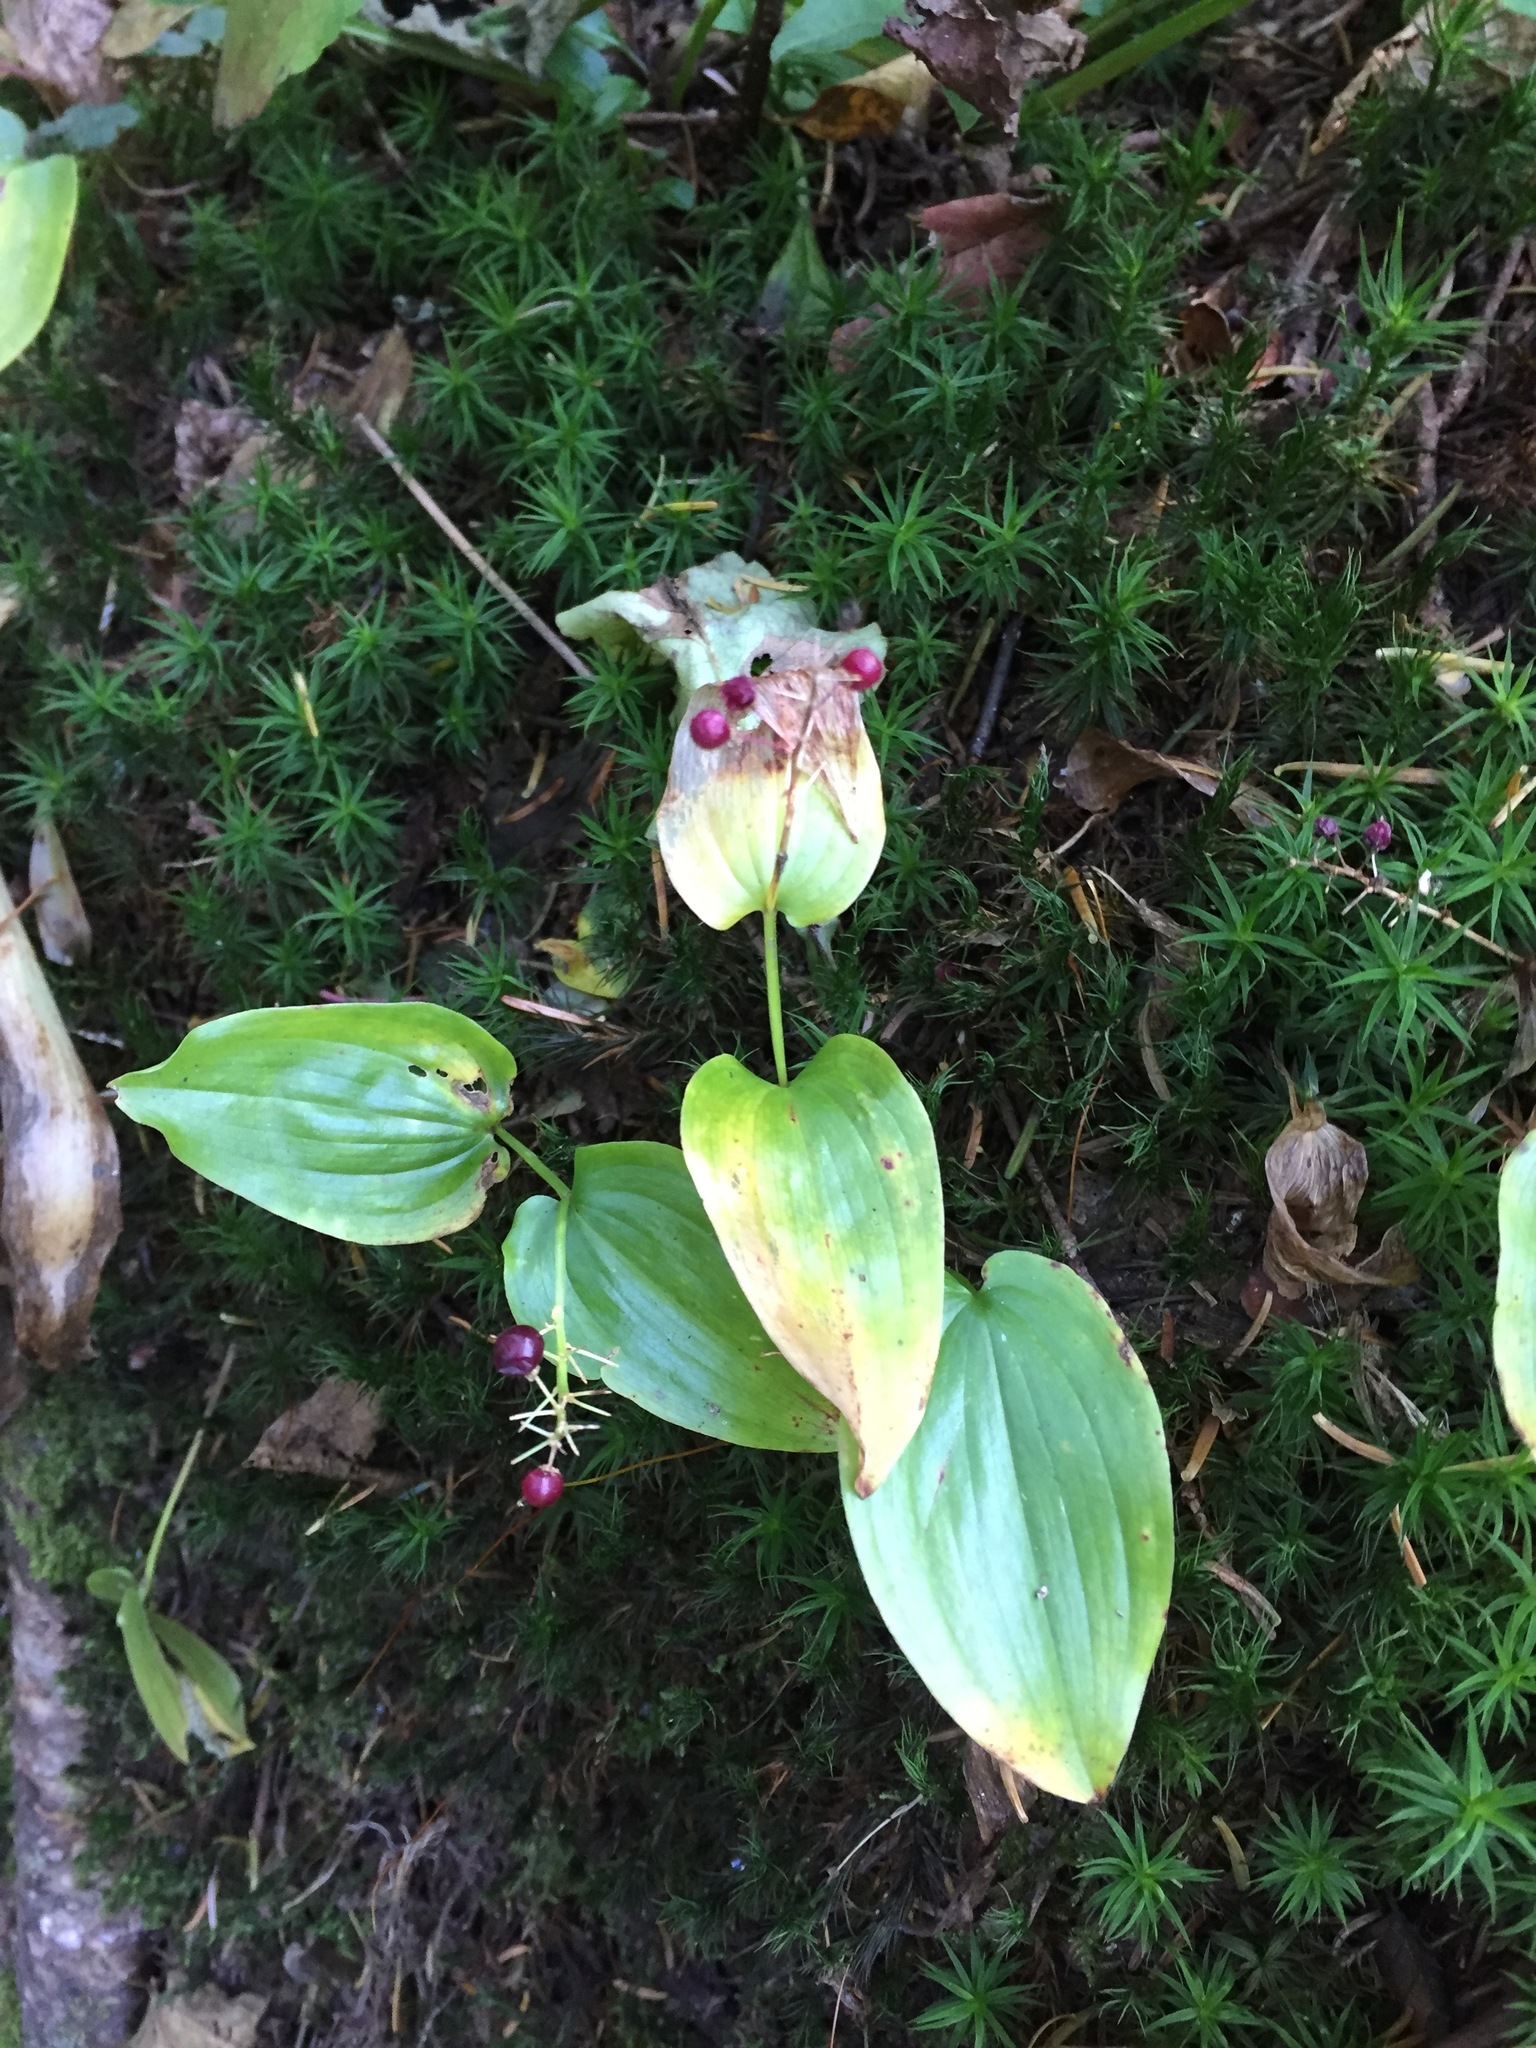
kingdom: Plantae
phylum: Tracheophyta
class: Liliopsida
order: Asparagales
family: Asparagaceae
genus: Maianthemum
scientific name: Maianthemum canadense
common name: False lily-of-the-valley
